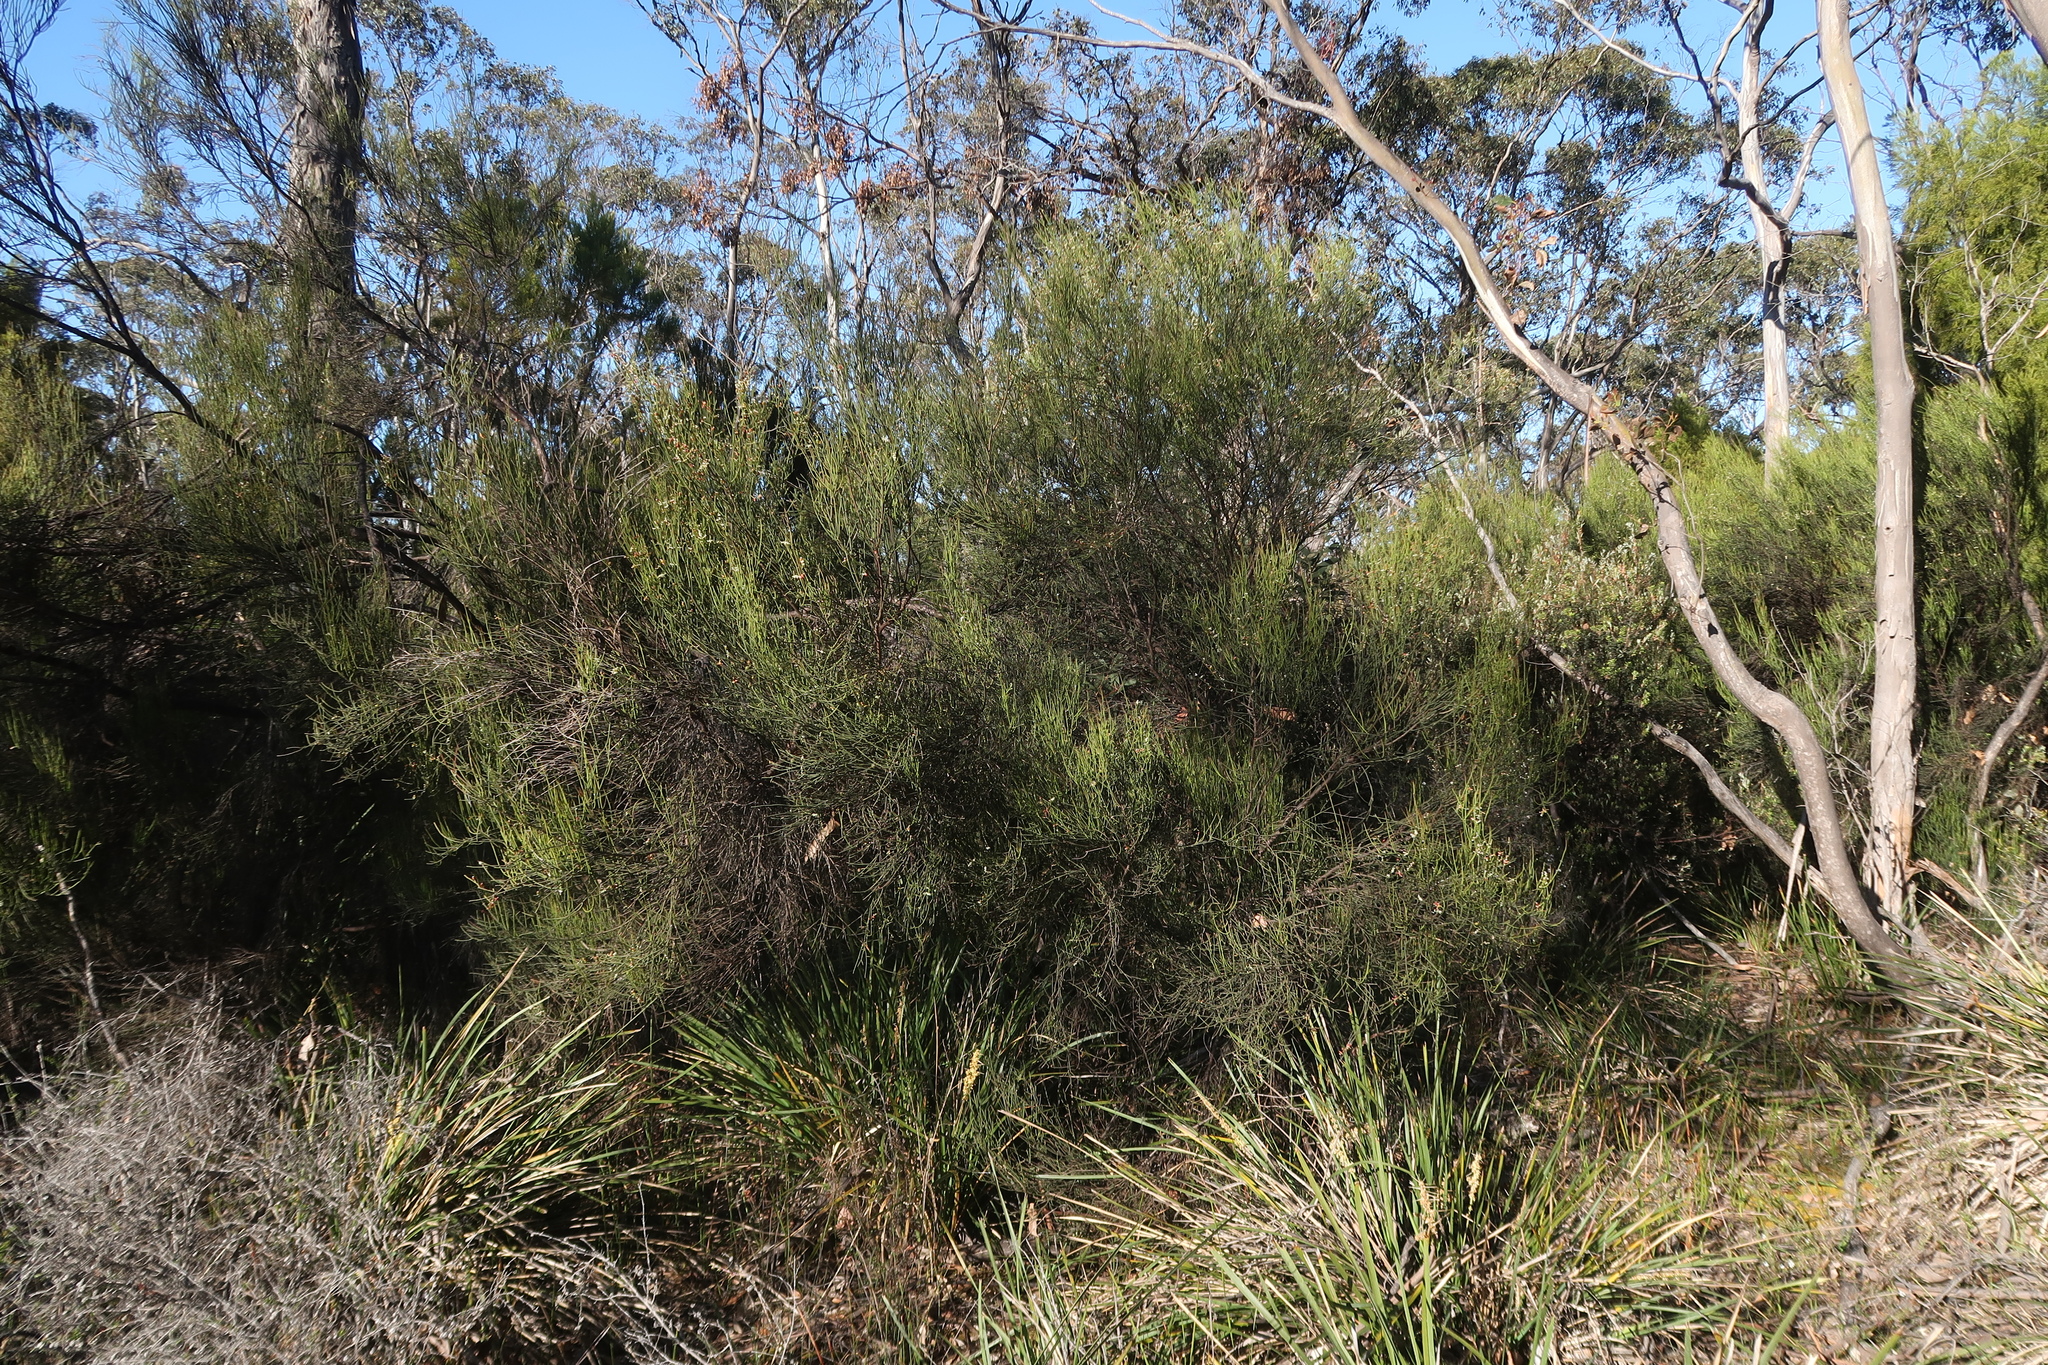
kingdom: Plantae
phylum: Tracheophyta
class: Magnoliopsida
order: Santalales
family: Amphorogynaceae
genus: Leptomeria
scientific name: Leptomeria drupacea
